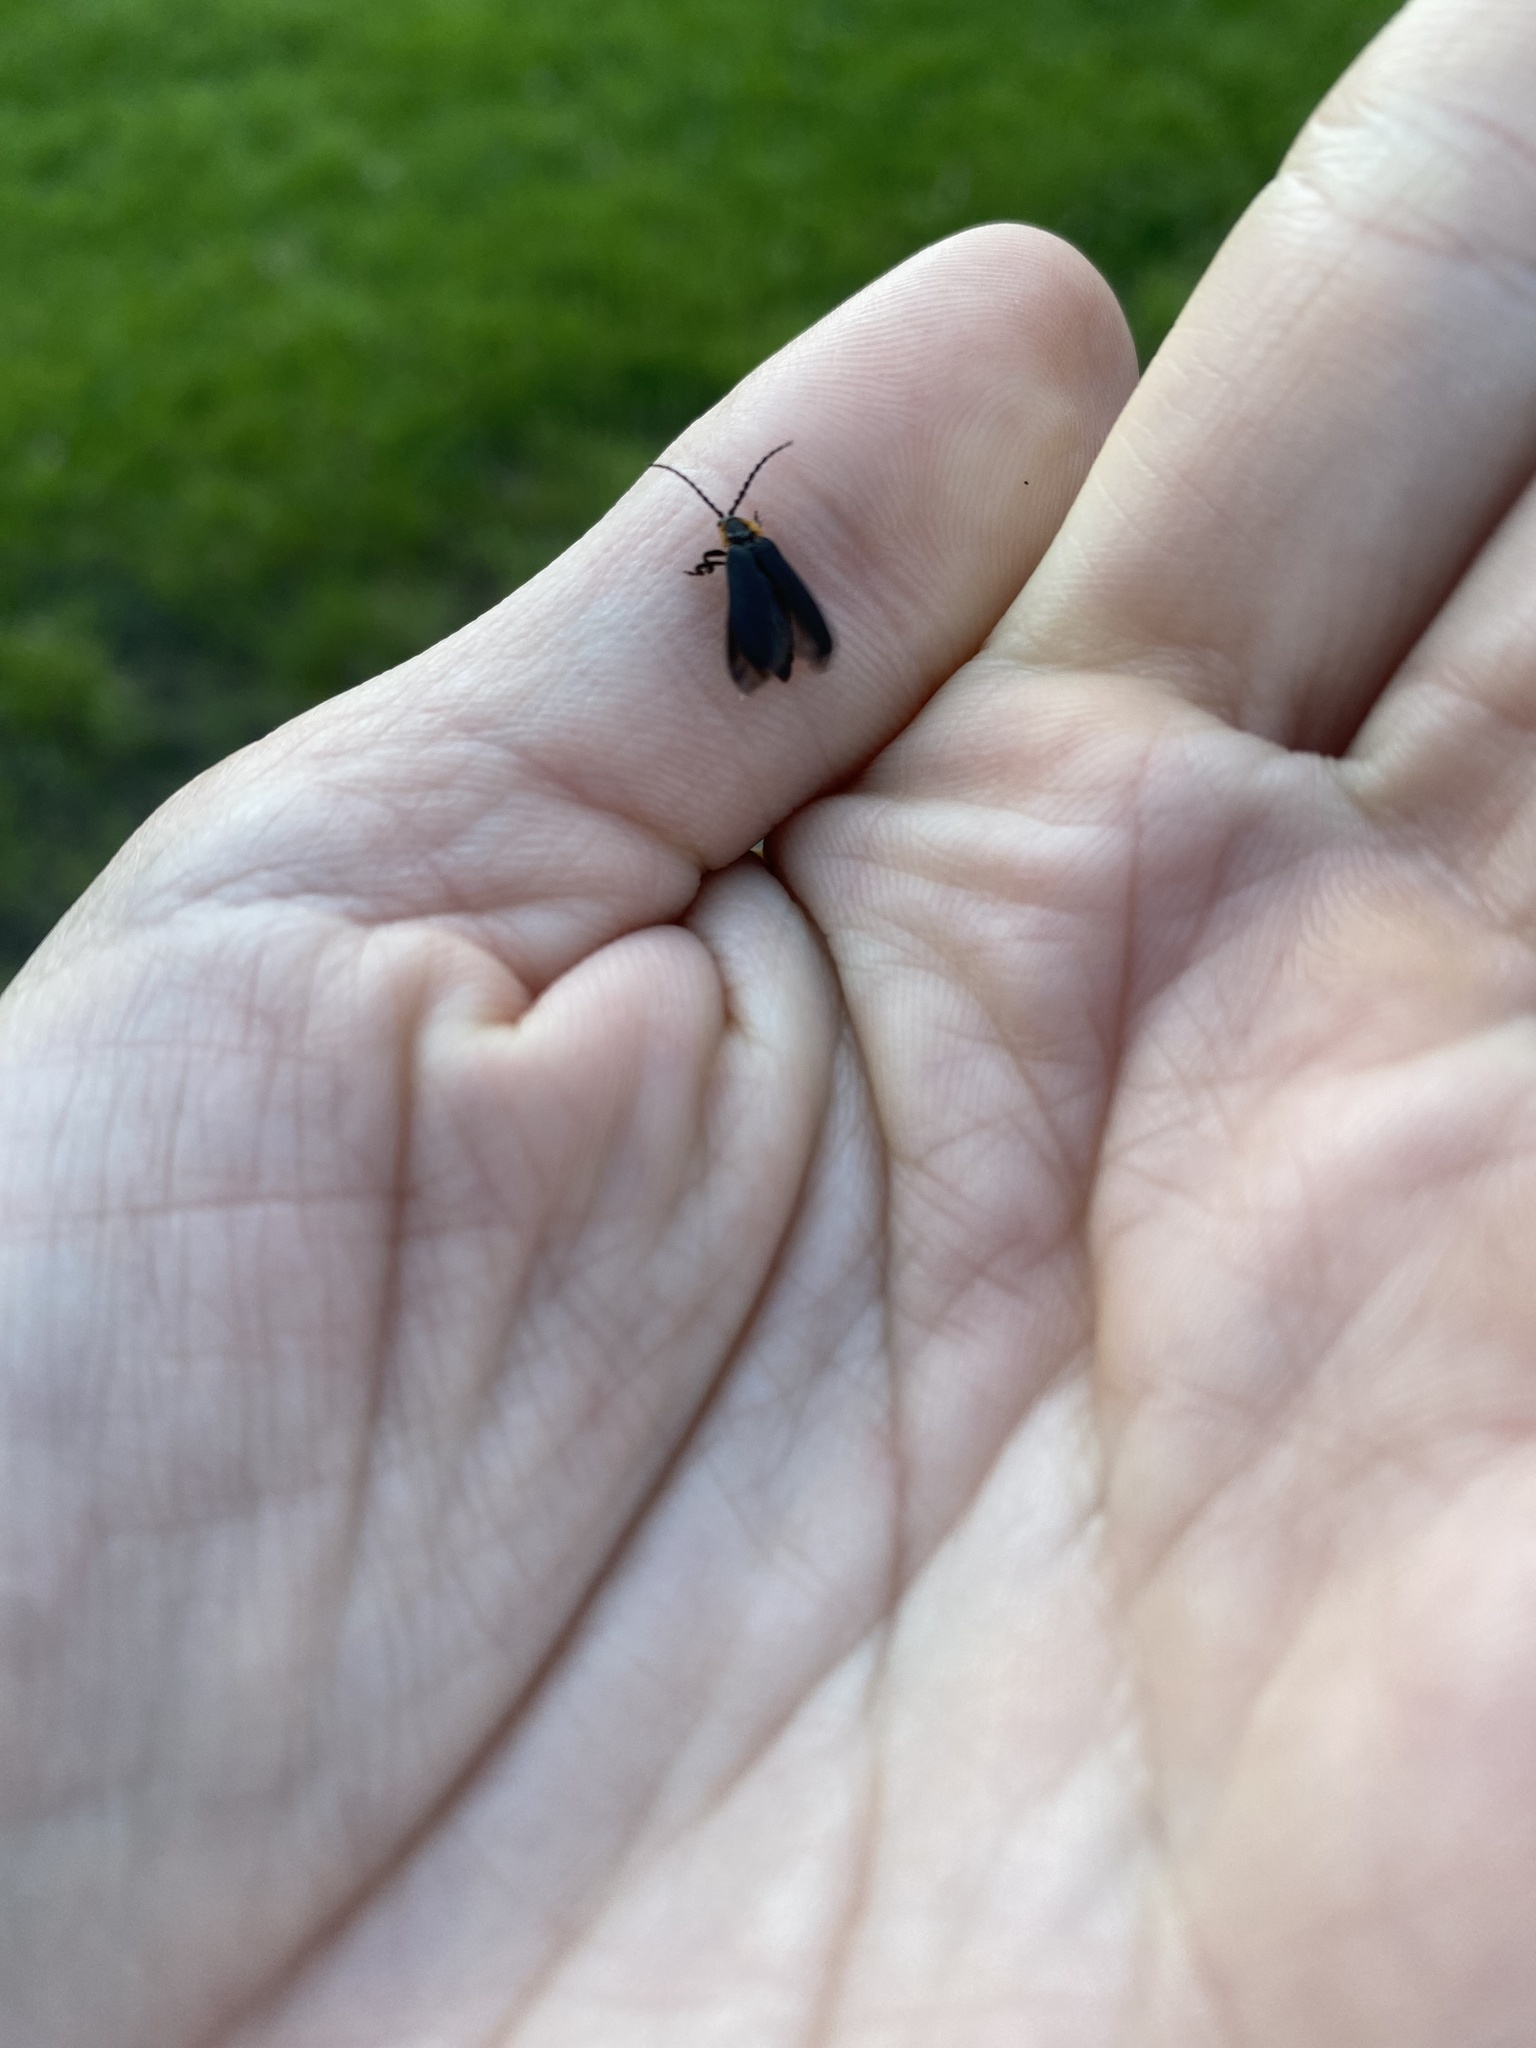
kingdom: Animalia
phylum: Arthropoda
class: Insecta
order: Coleoptera
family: Lampyridae
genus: Lucidota
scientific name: Lucidota atra
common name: Black firefly
